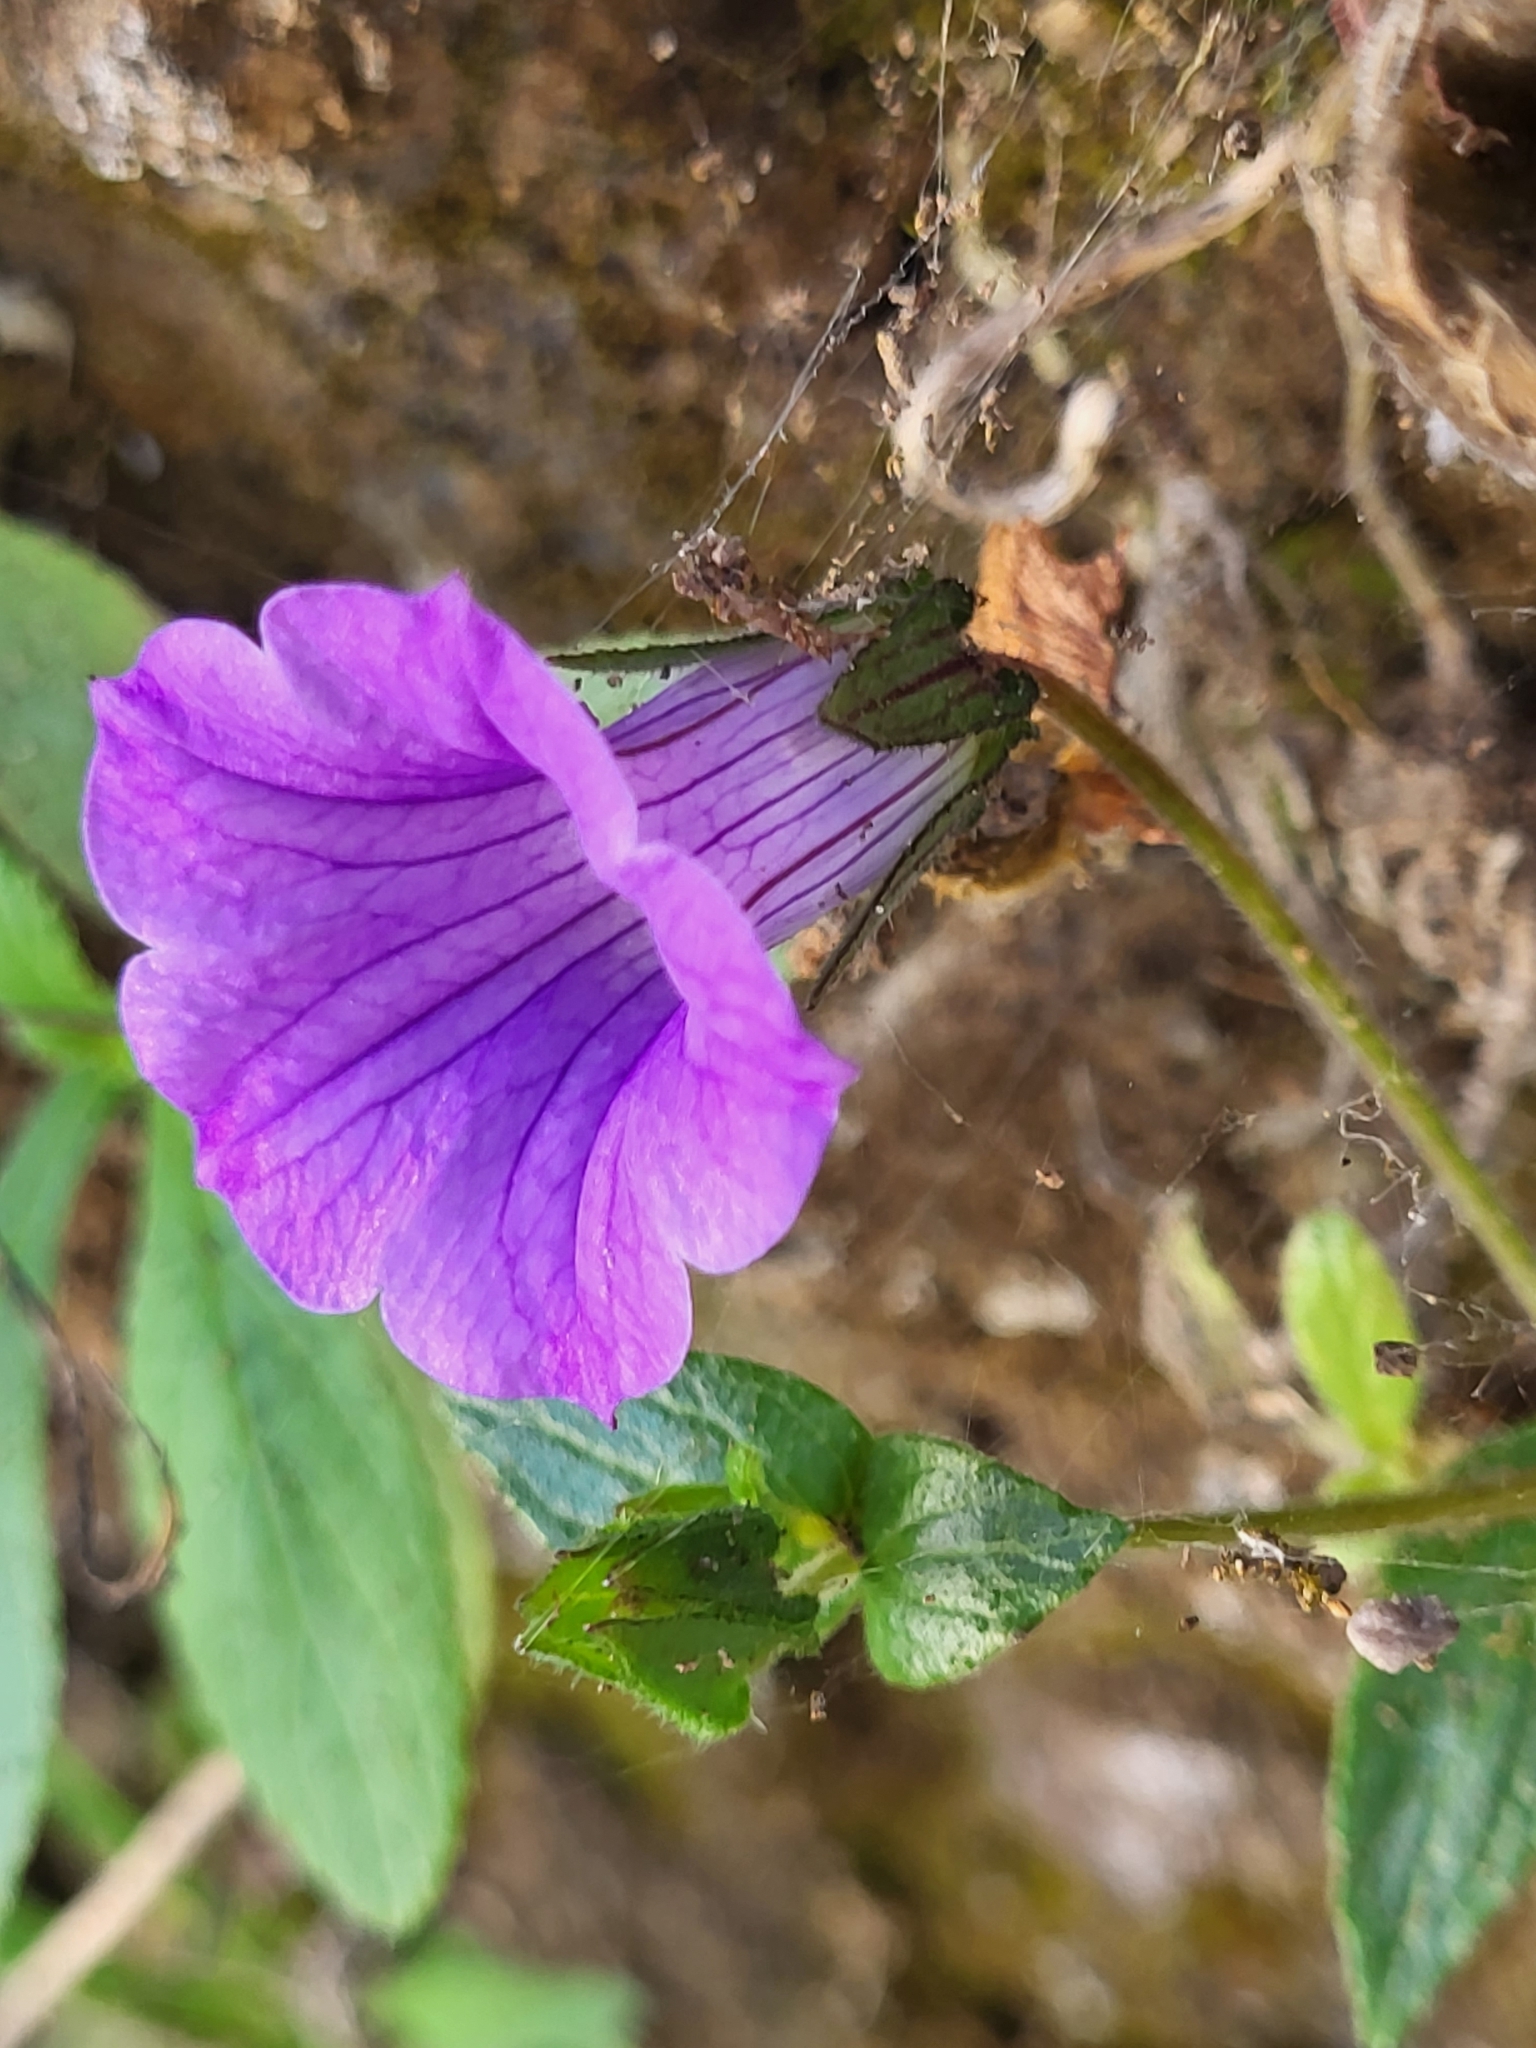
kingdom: Plantae
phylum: Tracheophyta
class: Magnoliopsida
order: Asterales
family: Campanulaceae
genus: Campanula
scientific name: Campanula feijoana
